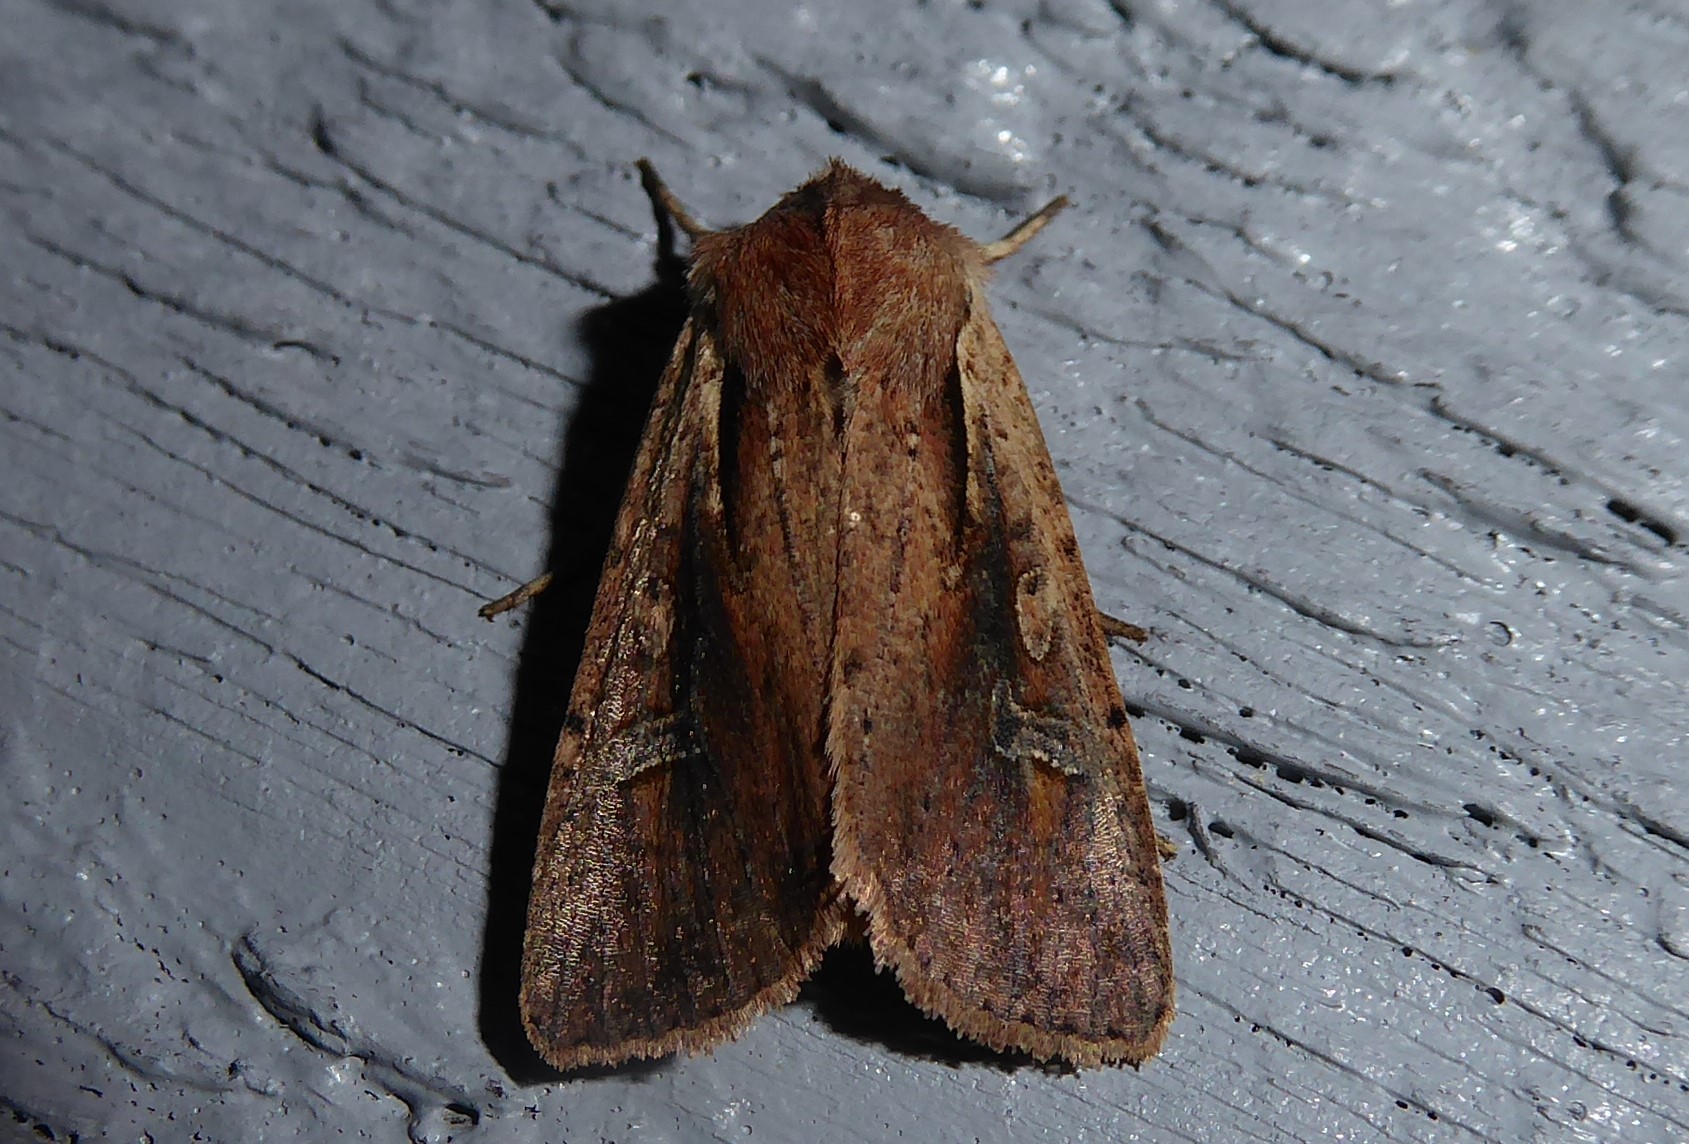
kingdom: Animalia
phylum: Arthropoda
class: Insecta
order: Lepidoptera
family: Noctuidae
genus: Ichneutica
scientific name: Ichneutica atristriga
